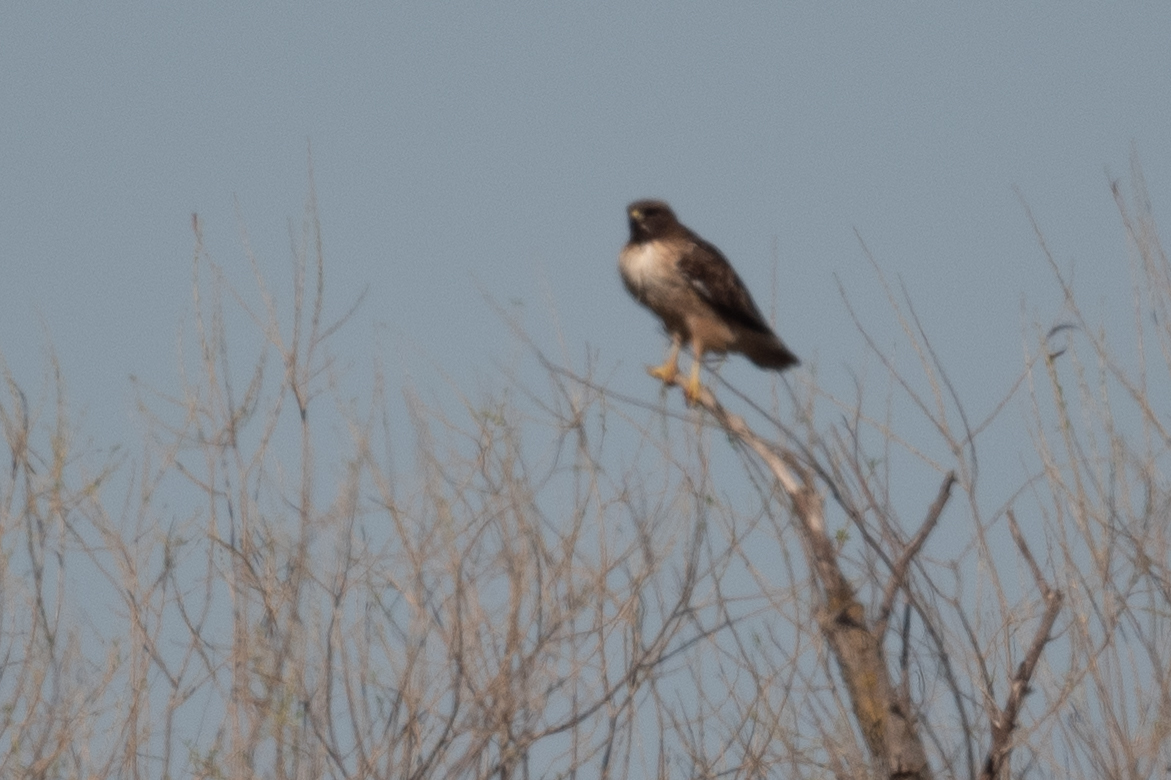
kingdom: Animalia
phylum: Chordata
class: Aves
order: Accipitriformes
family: Accipitridae
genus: Buteo
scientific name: Buteo jamaicensis
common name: Red-tailed hawk
